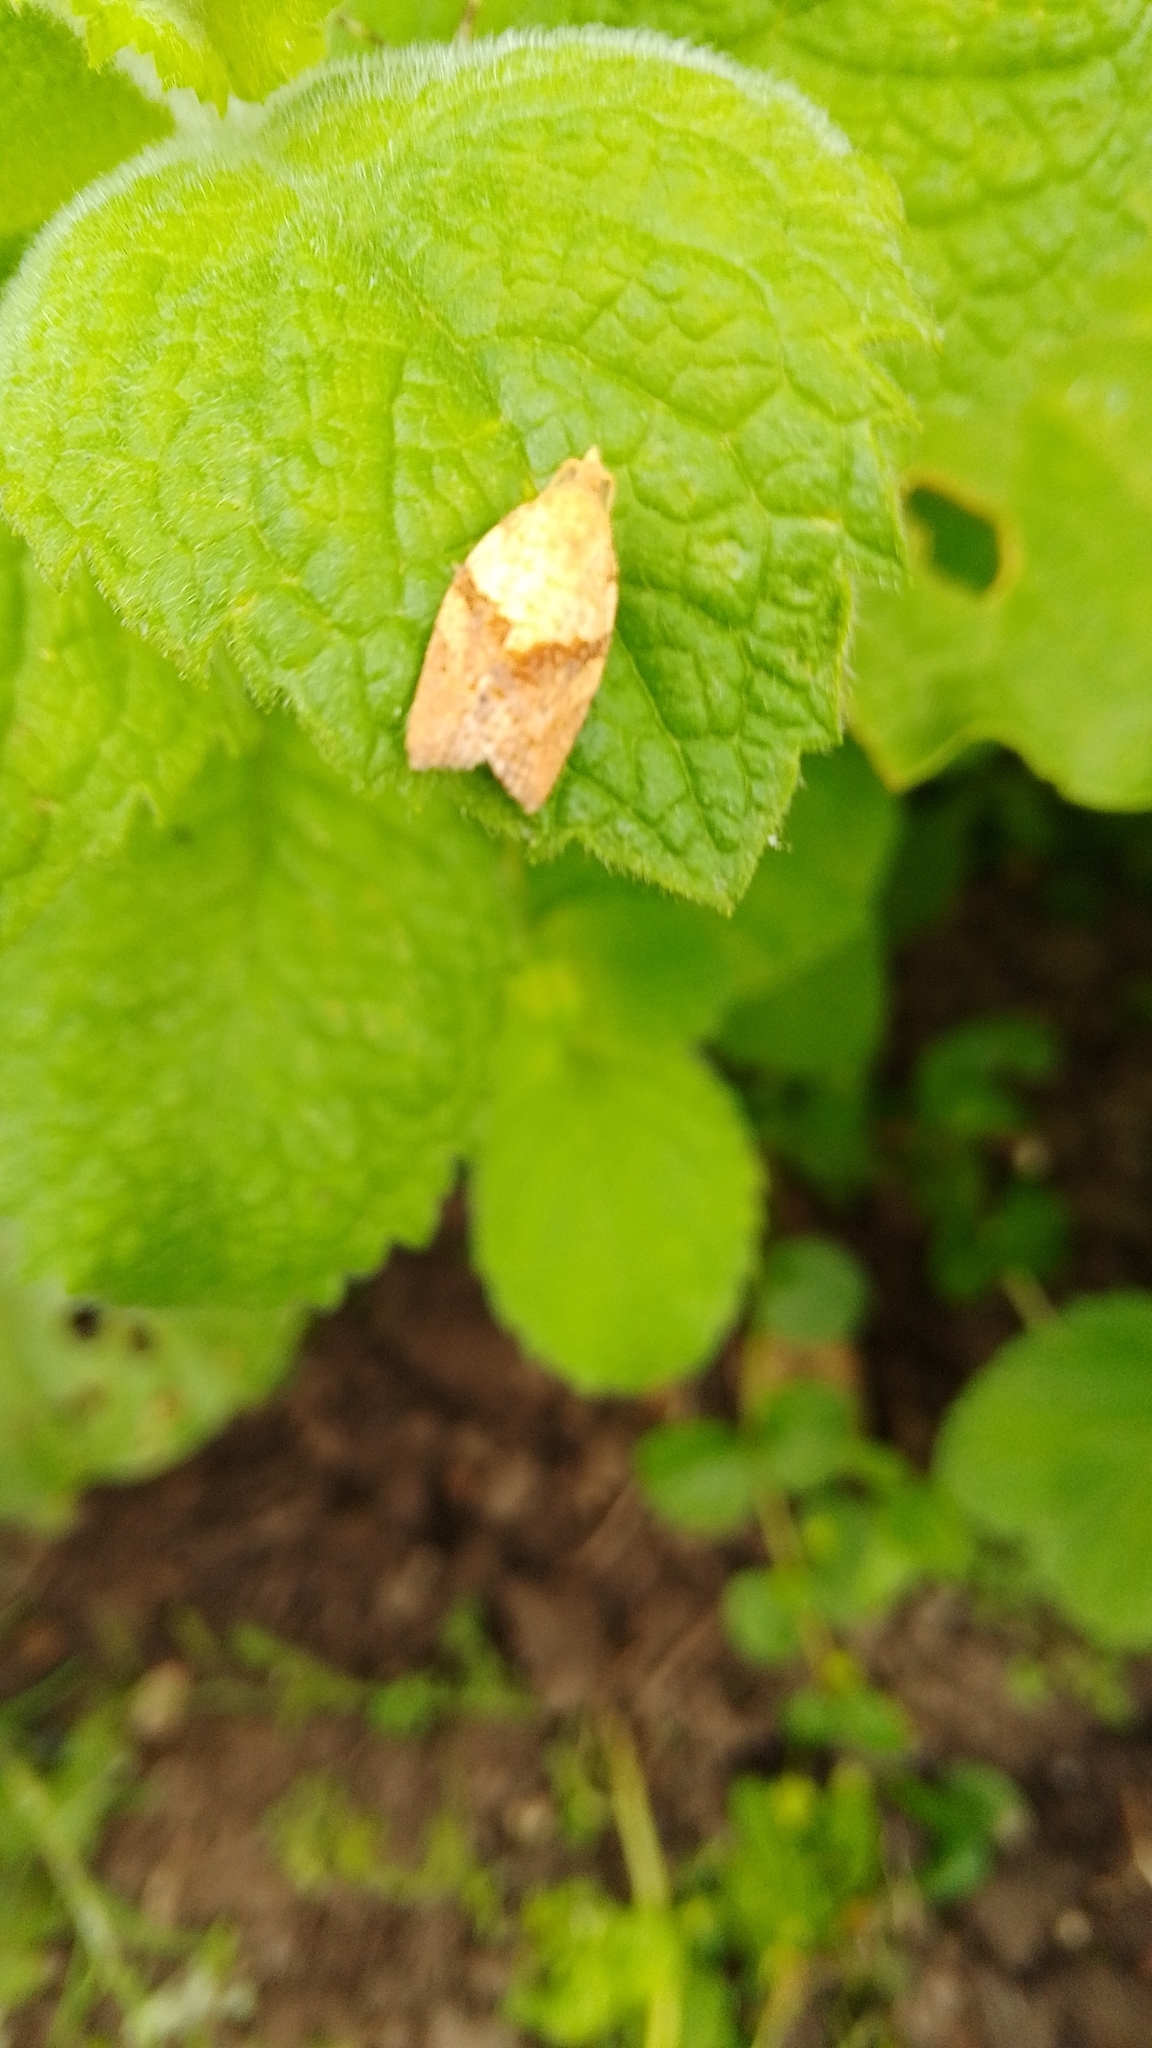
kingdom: Animalia
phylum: Arthropoda
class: Insecta
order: Lepidoptera
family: Tortricidae
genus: Epiphyas
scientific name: Epiphyas postvittana
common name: Light brown apple moth
